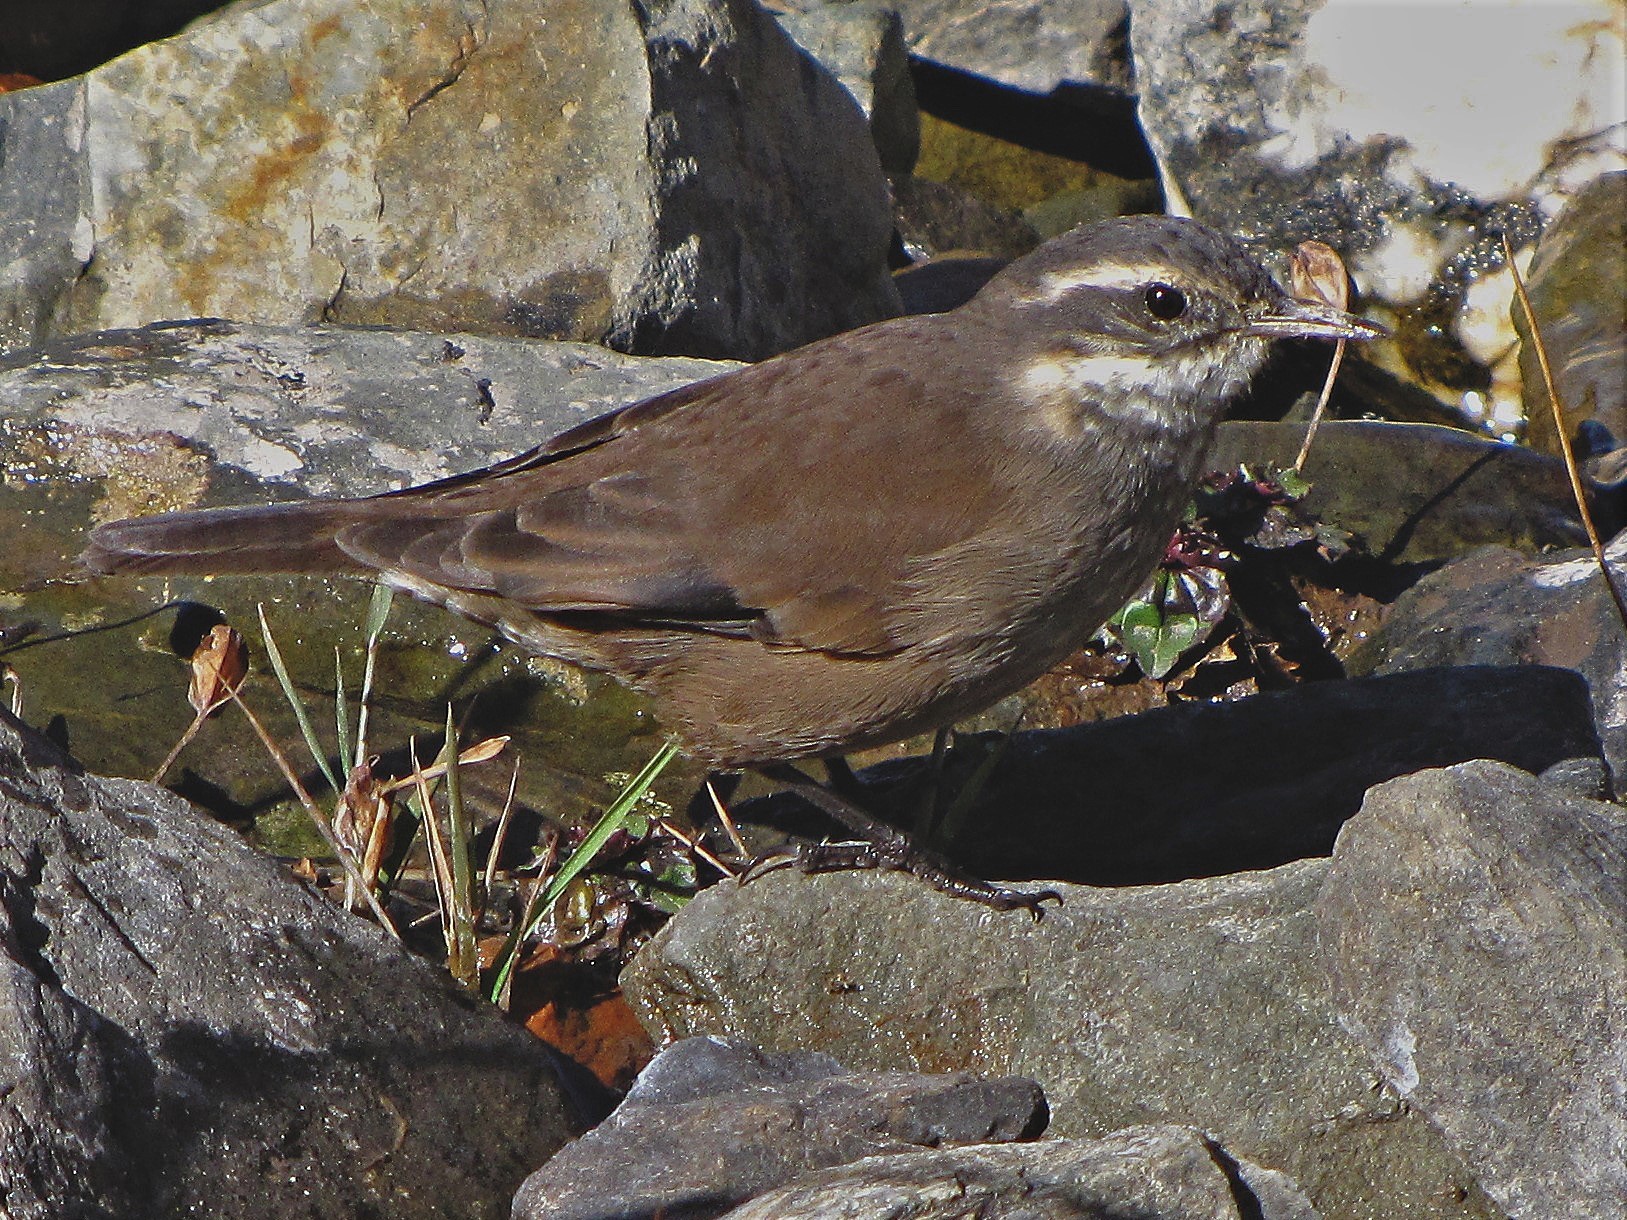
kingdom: Animalia
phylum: Chordata
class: Aves
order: Passeriformes
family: Furnariidae
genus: Cinclodes
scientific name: Cinclodes oustaleti
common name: Grey-flanked cinclodes
